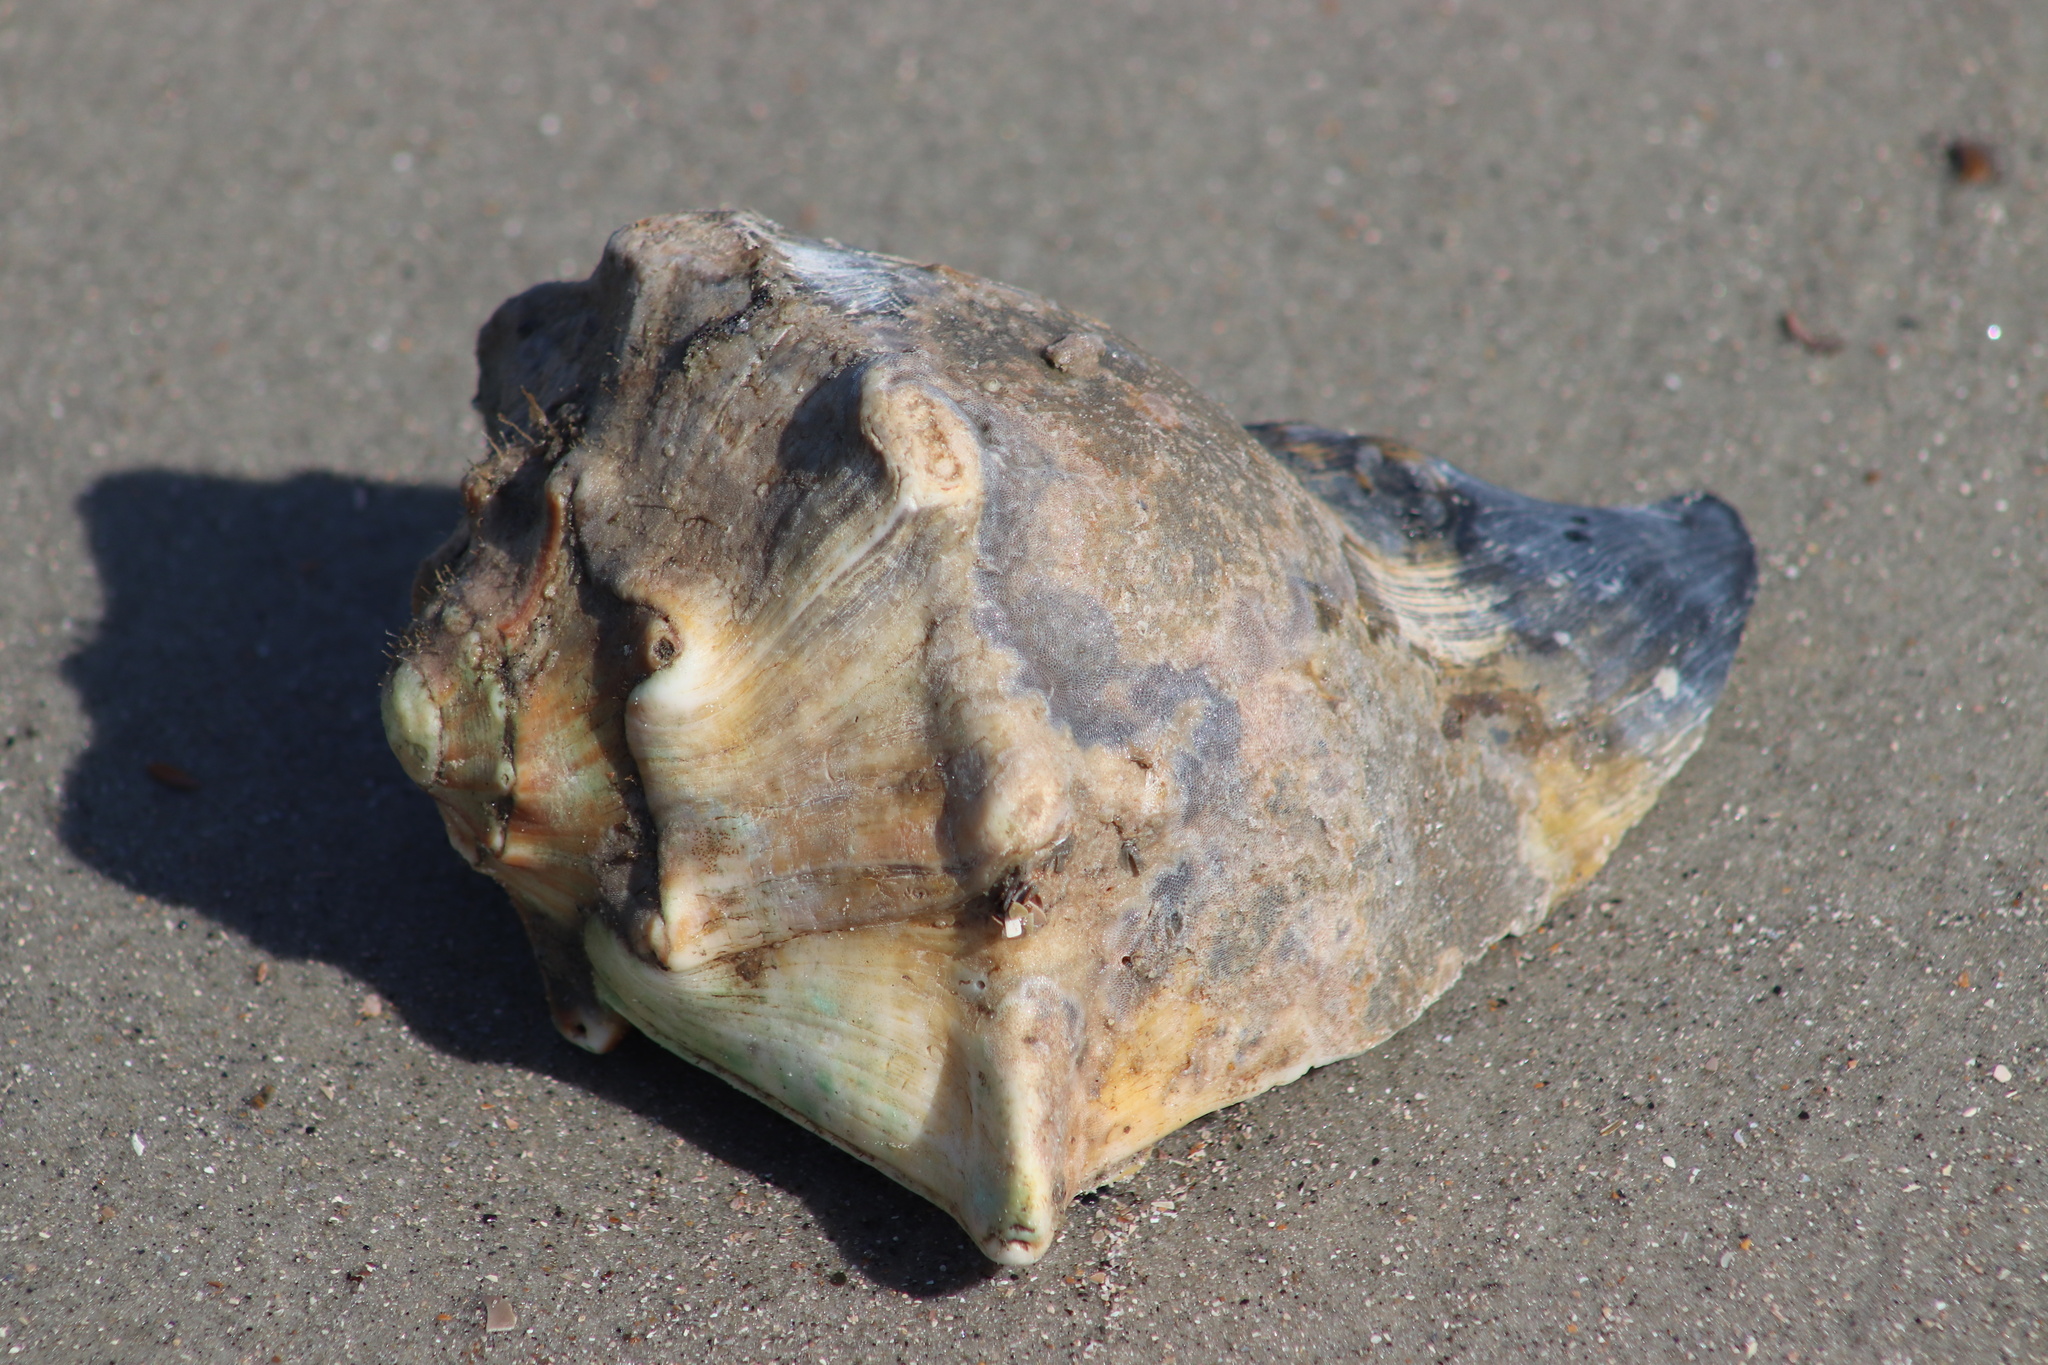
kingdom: Animalia
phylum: Mollusca
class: Gastropoda
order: Neogastropoda
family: Busyconidae
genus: Busycon
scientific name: Busycon carica
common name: Knobbed whelk
